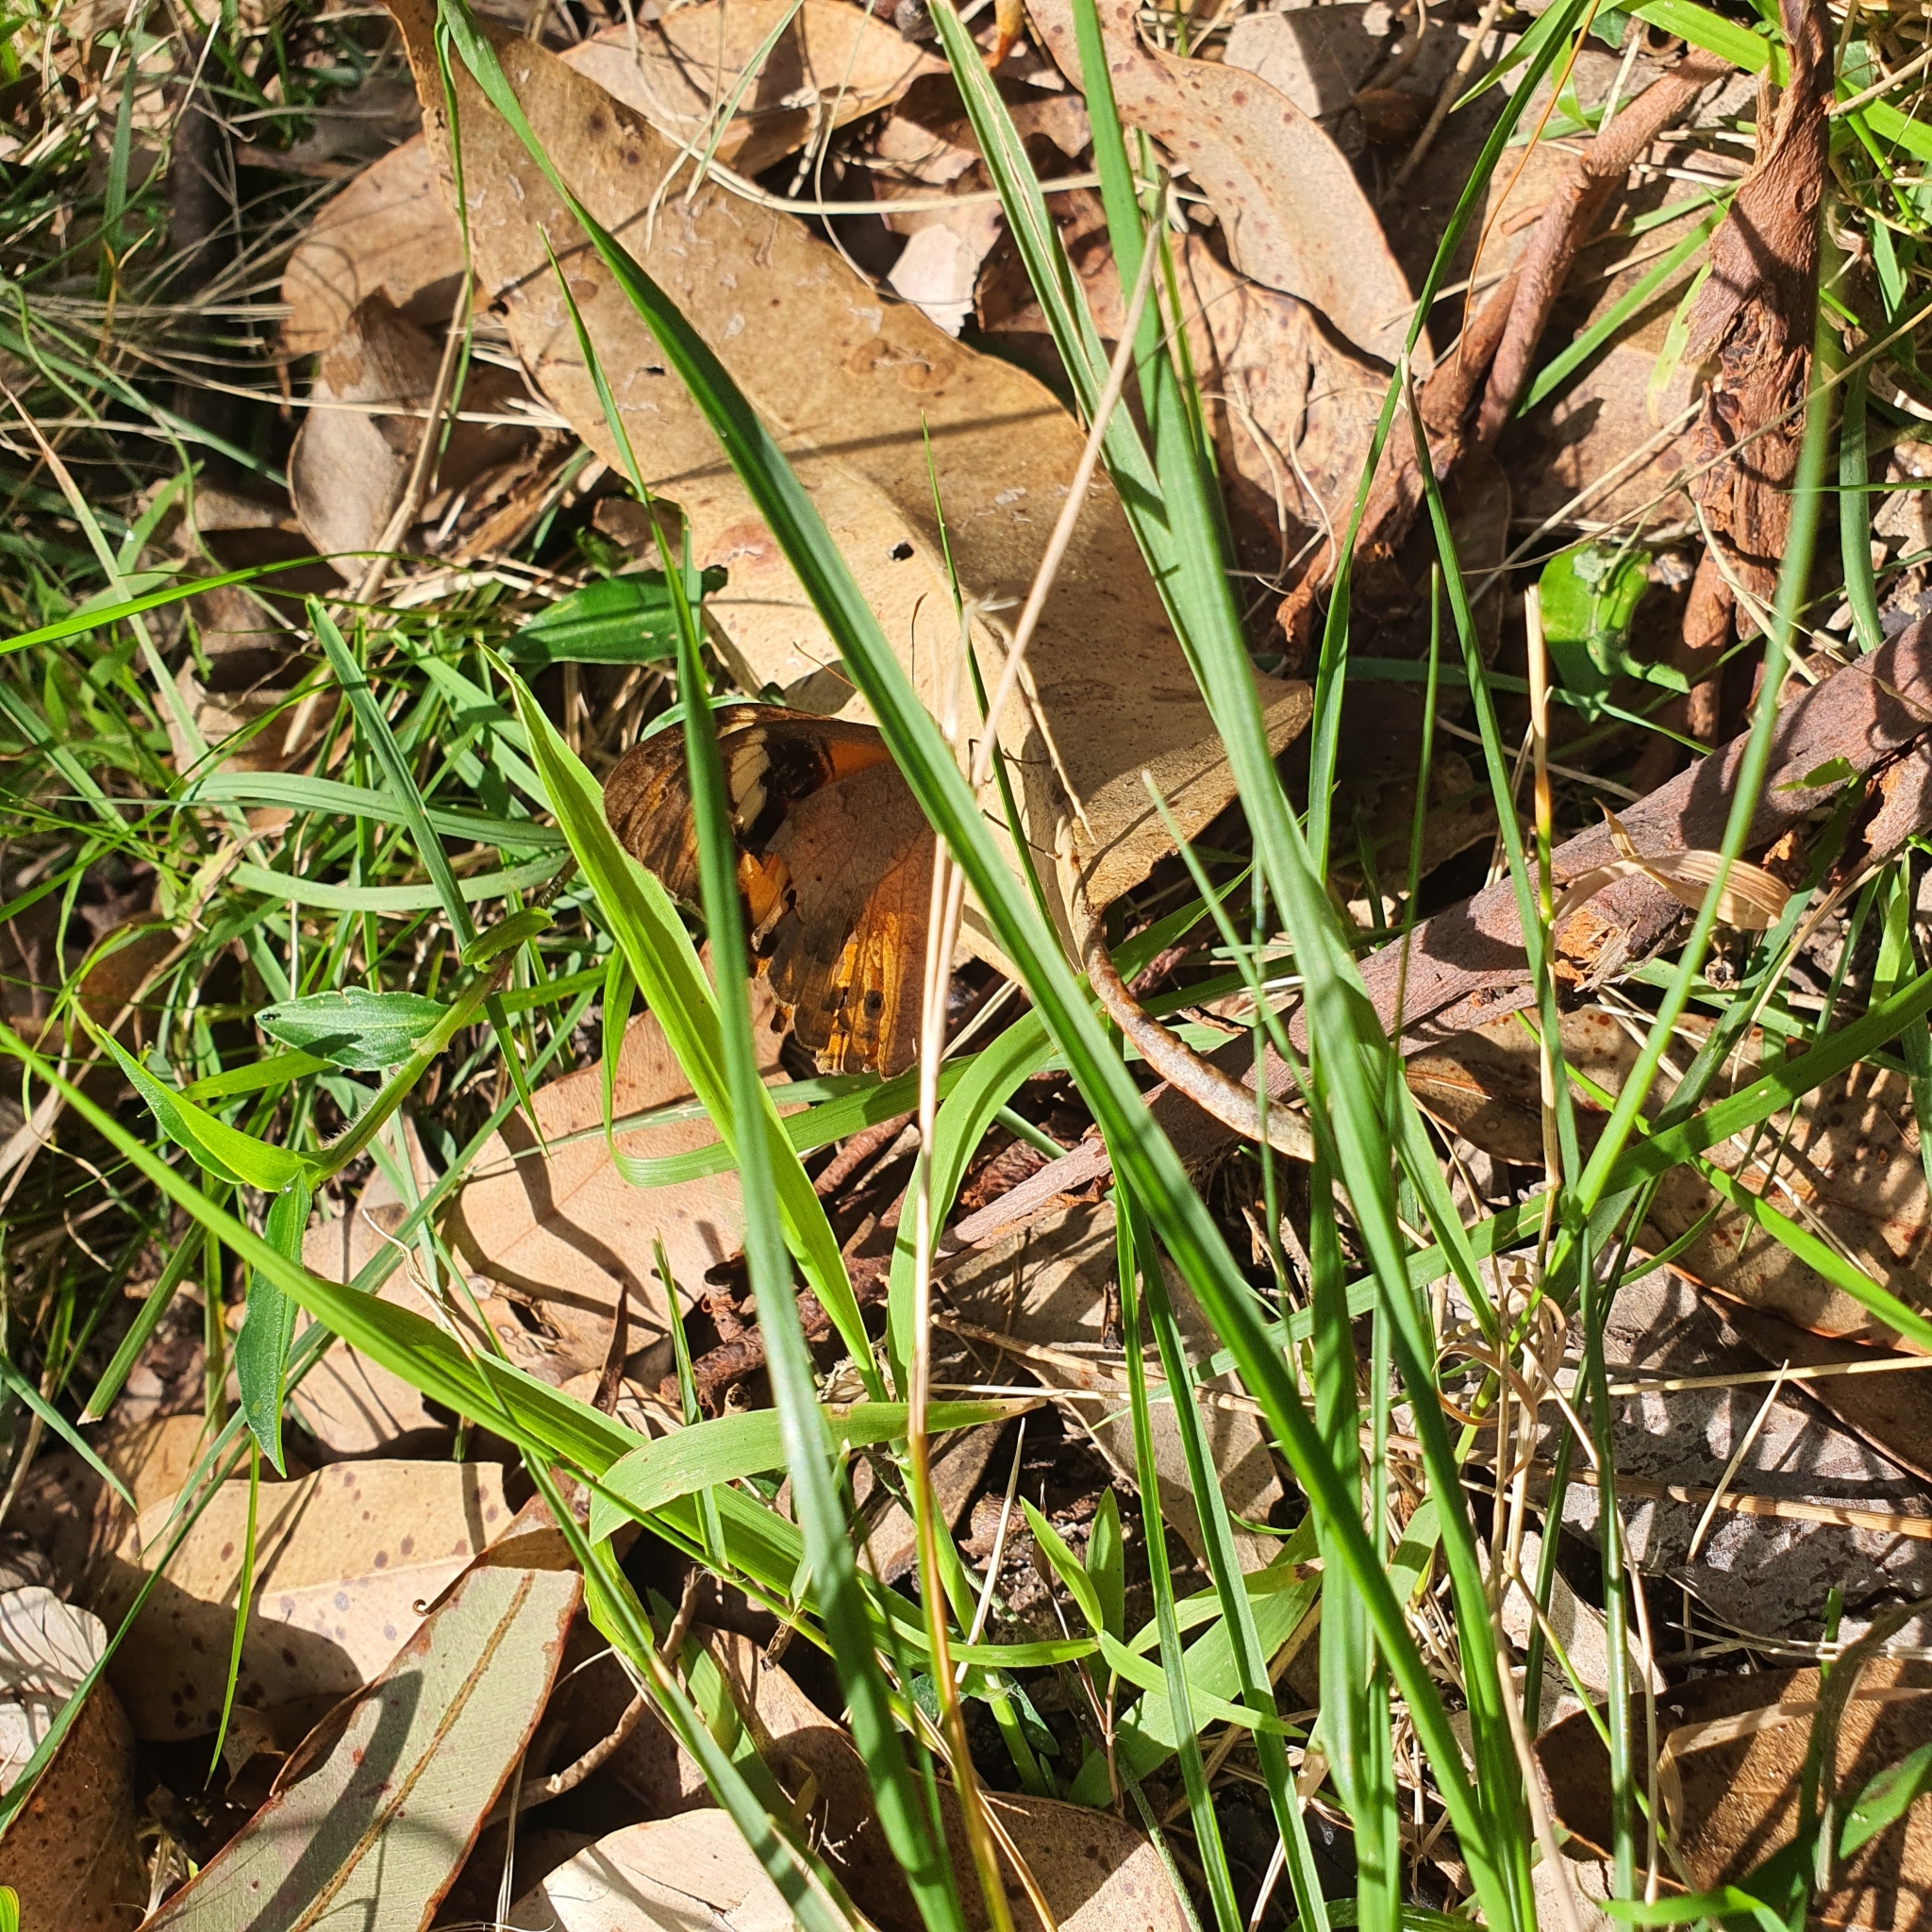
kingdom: Animalia
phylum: Arthropoda
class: Insecta
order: Lepidoptera
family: Nymphalidae
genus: Heteronympha
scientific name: Heteronympha merope
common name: Common brown
